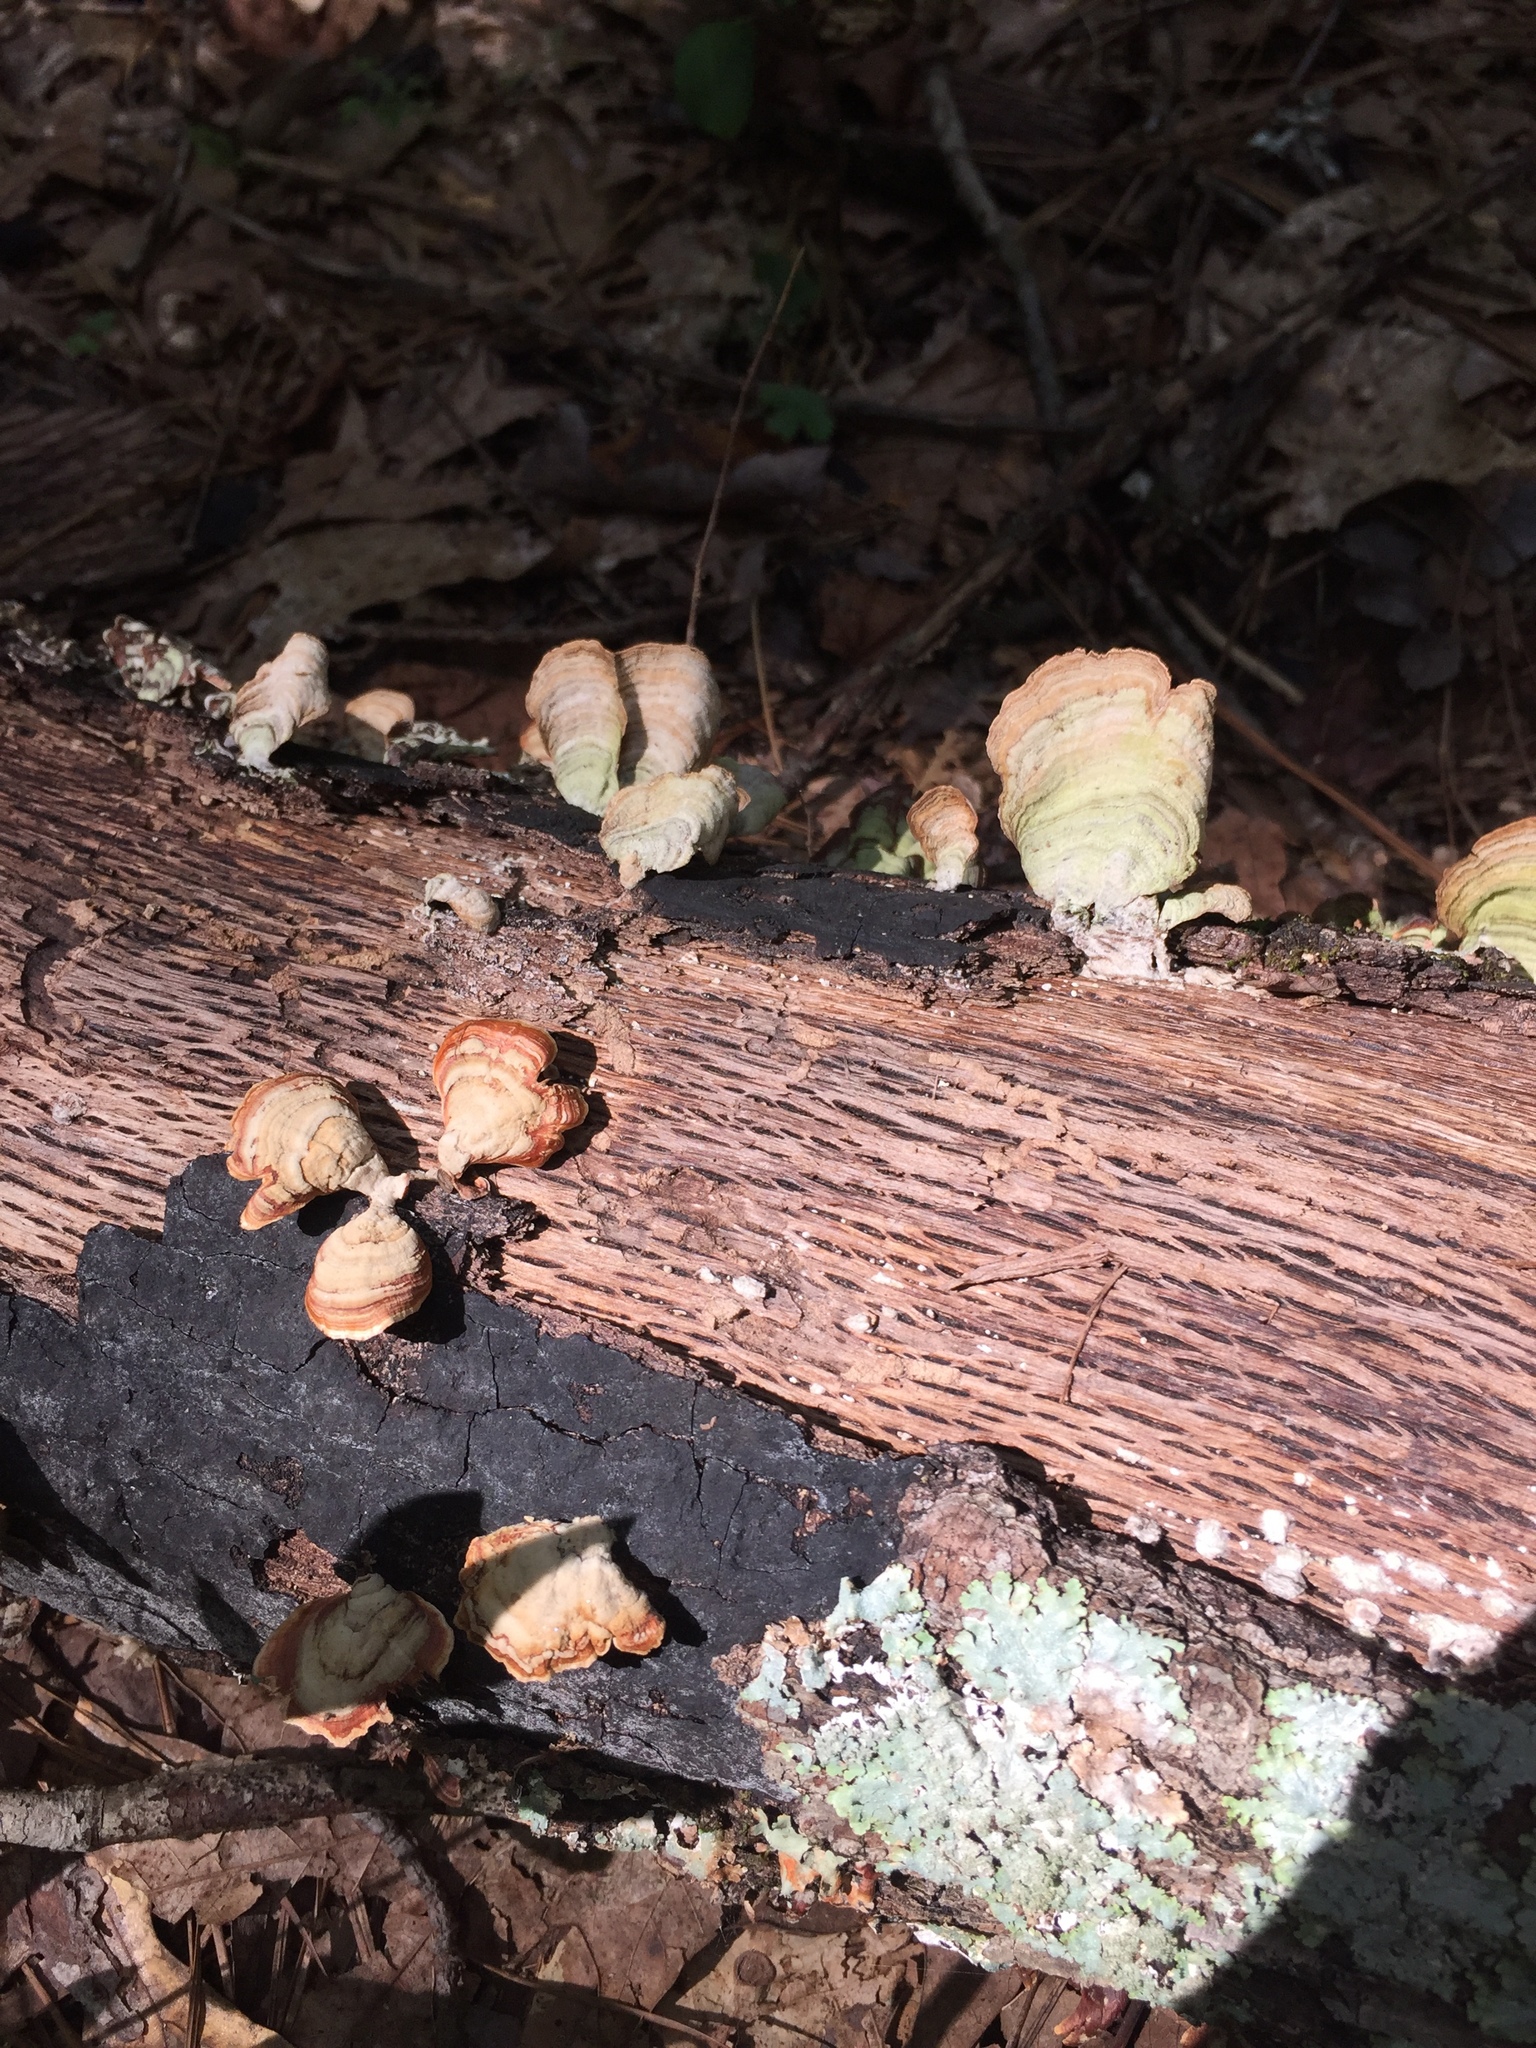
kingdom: Fungi
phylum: Basidiomycota
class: Agaricomycetes
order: Russulales
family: Stereaceae
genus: Stereum
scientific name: Stereum ostrea
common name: False turkeytail
